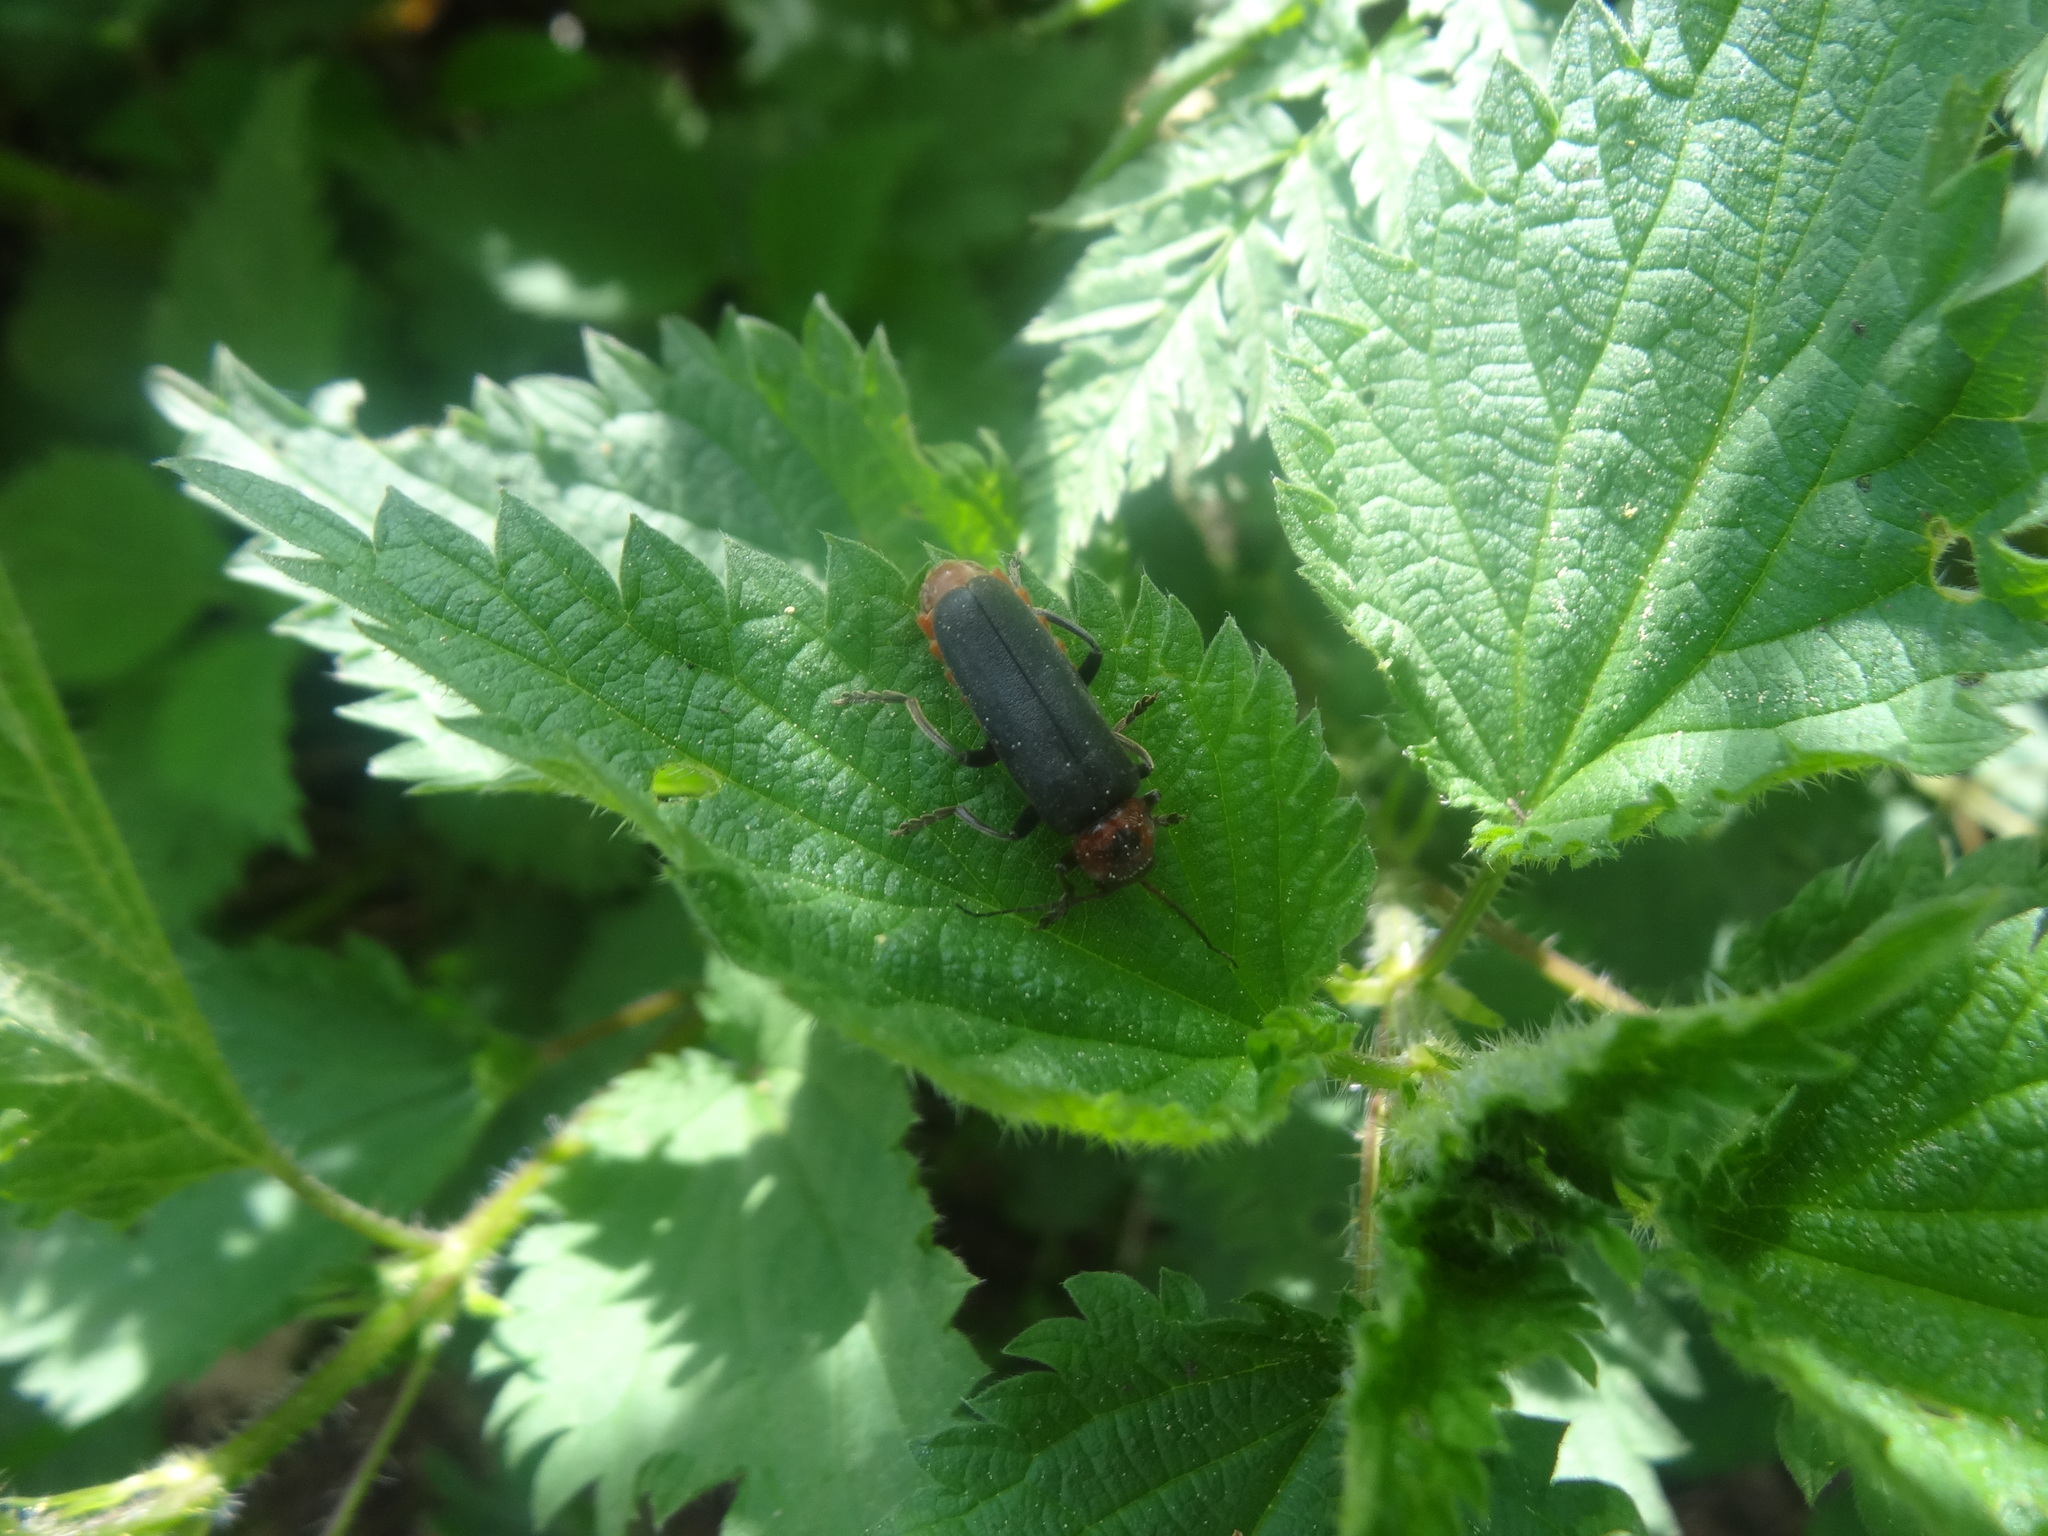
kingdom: Animalia
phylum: Arthropoda
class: Insecta
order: Coleoptera
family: Cantharidae
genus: Cantharis
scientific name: Cantharis rustica
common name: Soldier beetle
